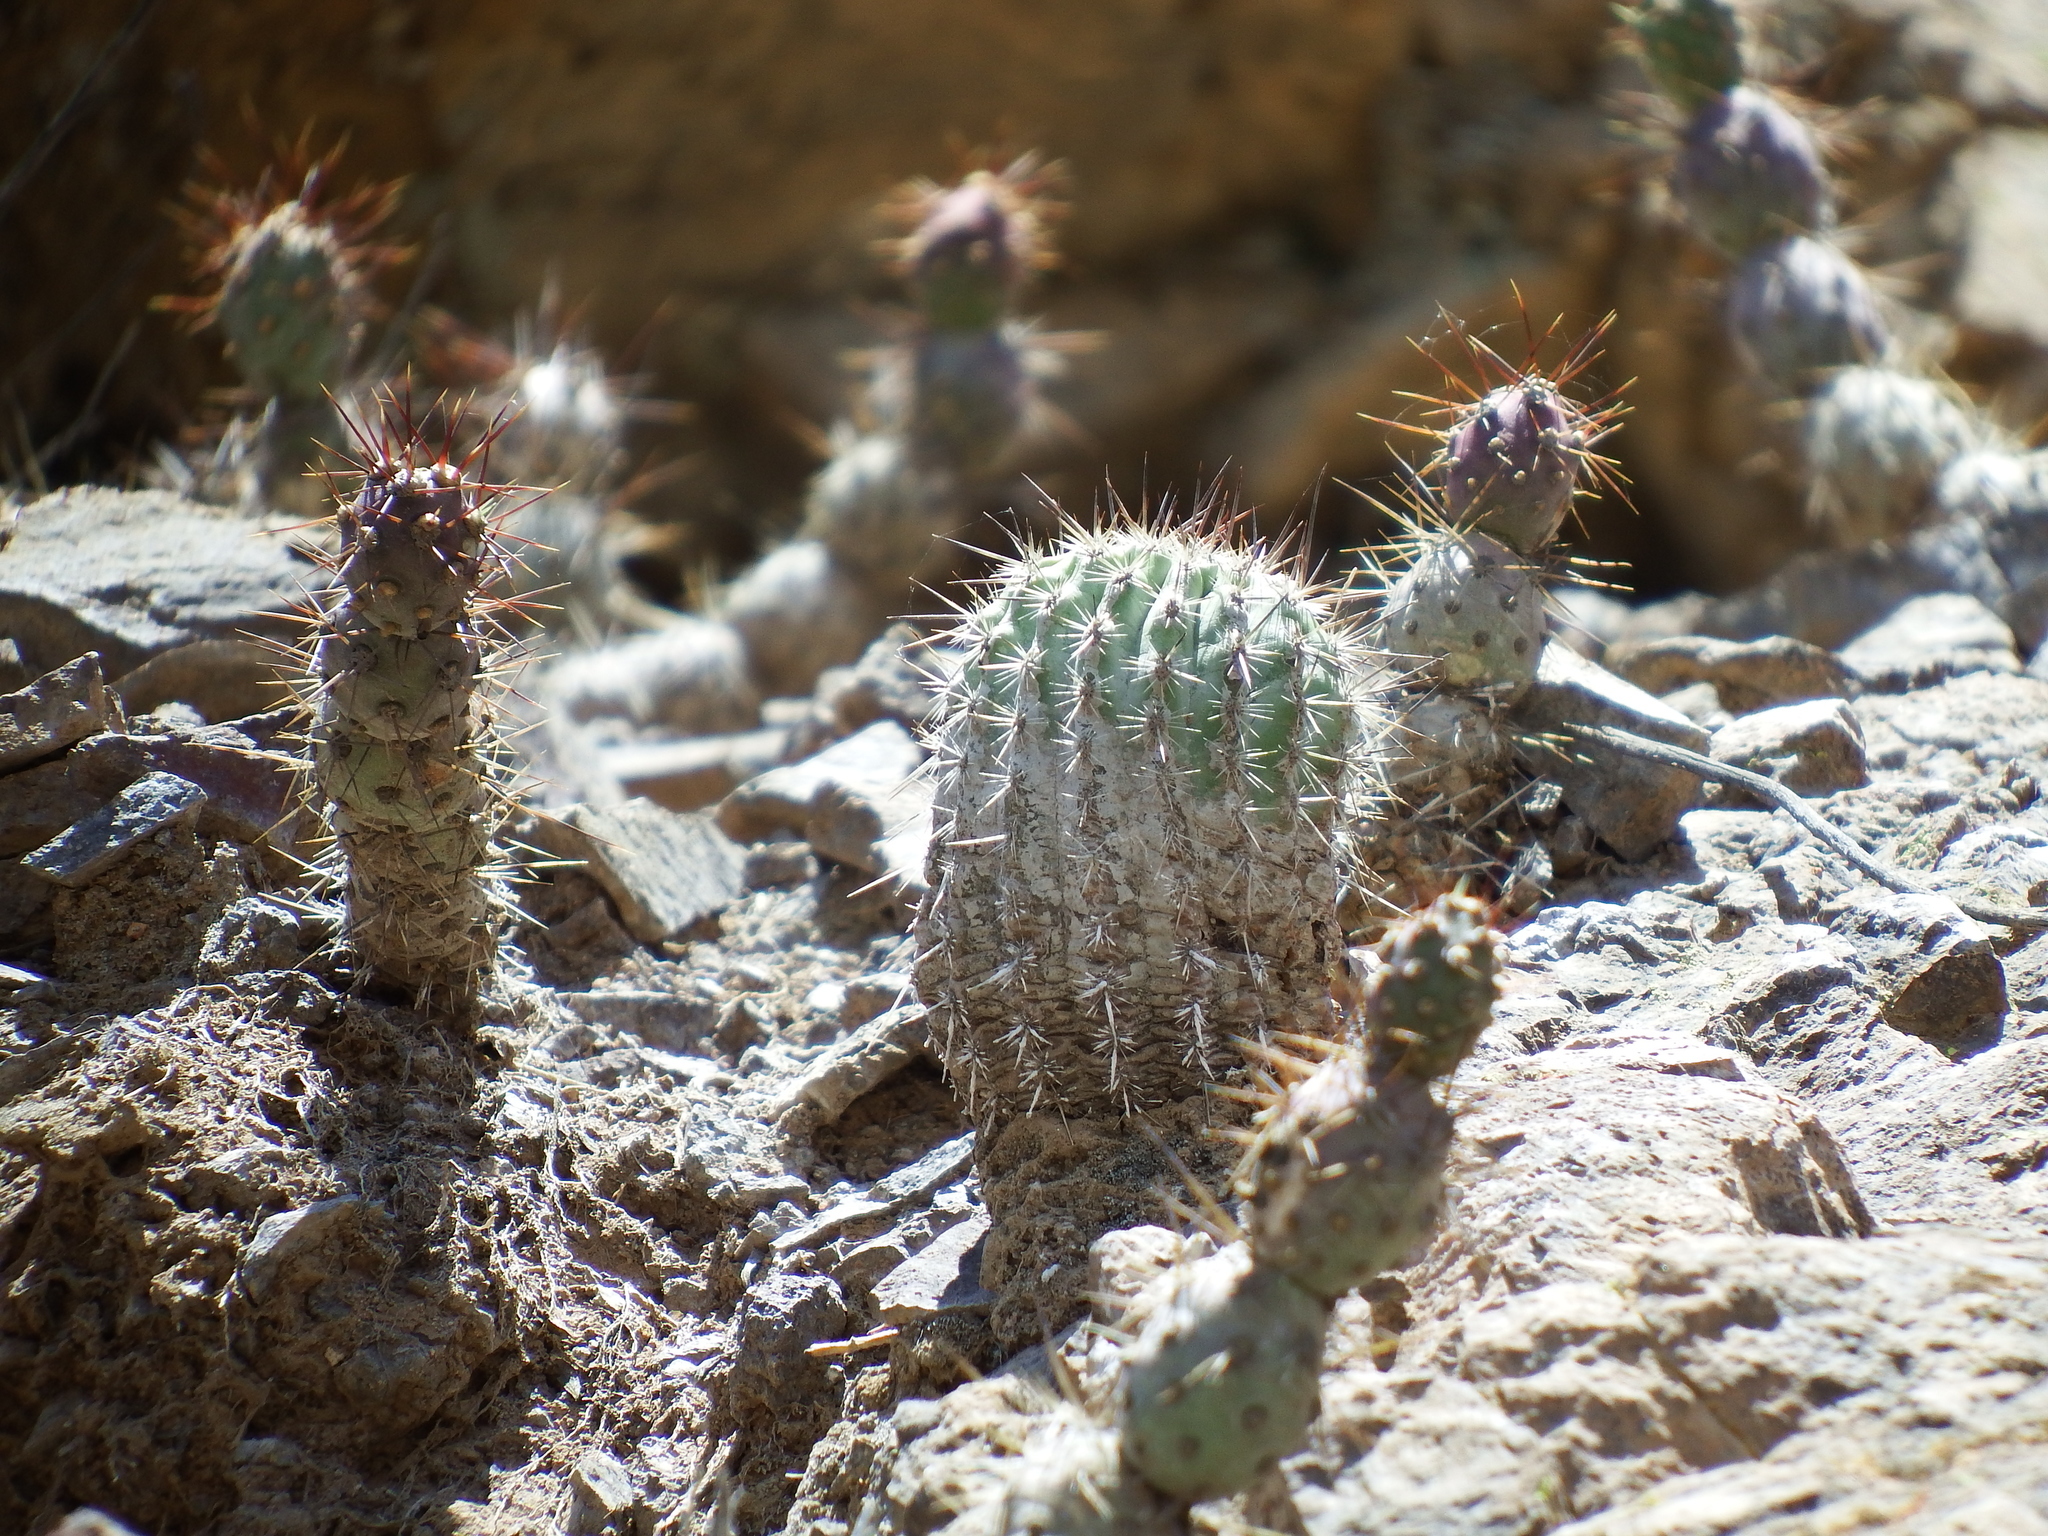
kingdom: Plantae
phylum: Tracheophyta
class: Magnoliopsida
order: Caryophyllales
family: Cactaceae
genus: Oreocereus
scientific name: Oreocereus hempelianus
